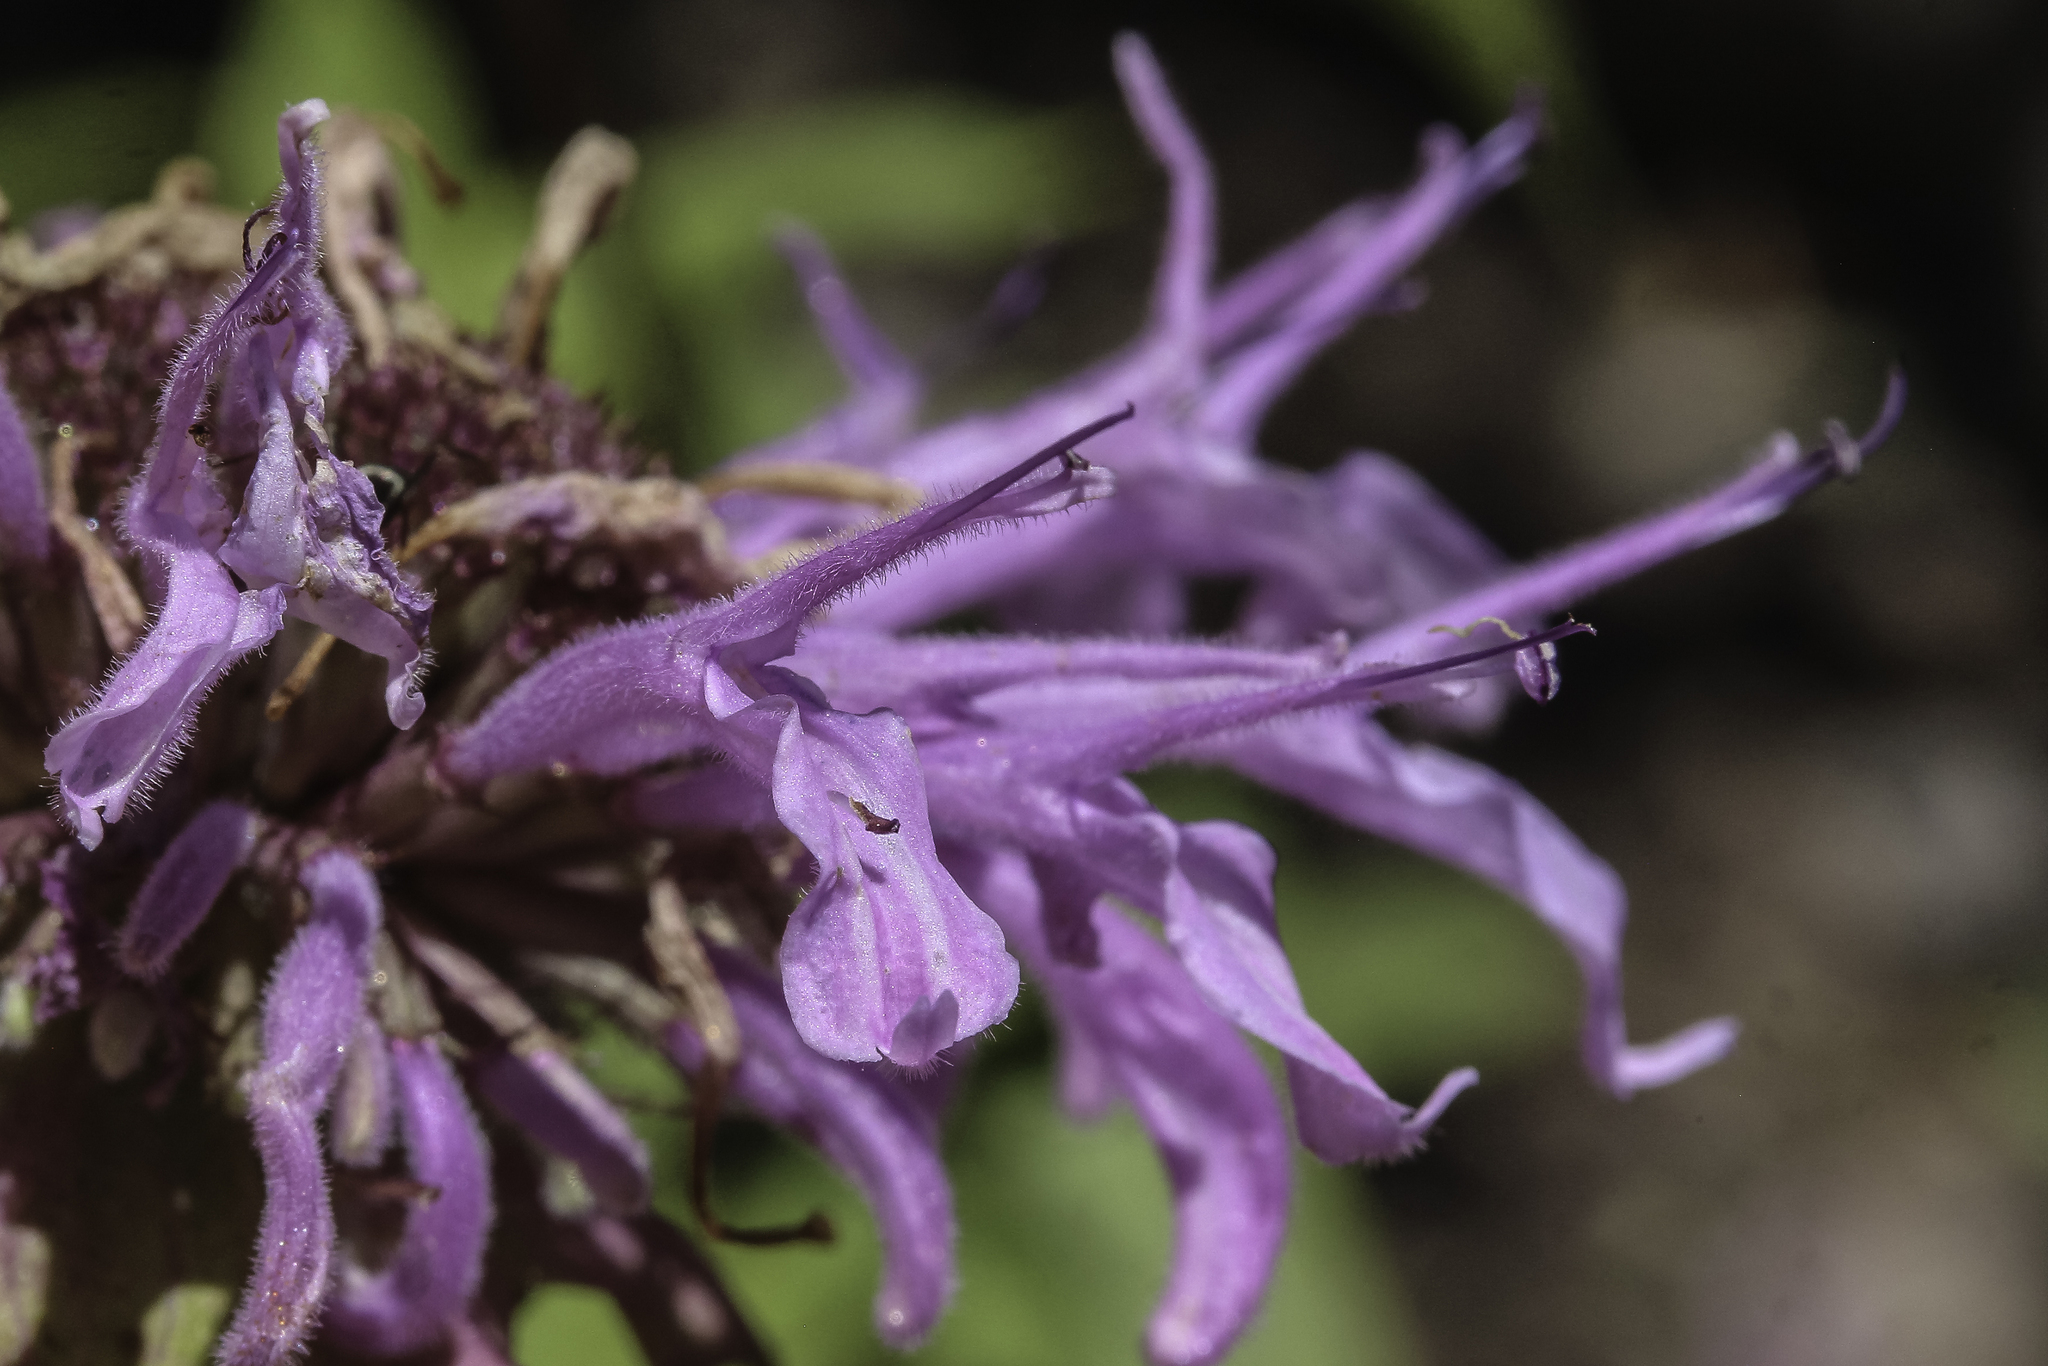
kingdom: Plantae
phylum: Tracheophyta
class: Magnoliopsida
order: Lamiales
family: Lamiaceae
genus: Monarda
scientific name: Monarda fistulosa
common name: Purple beebalm
